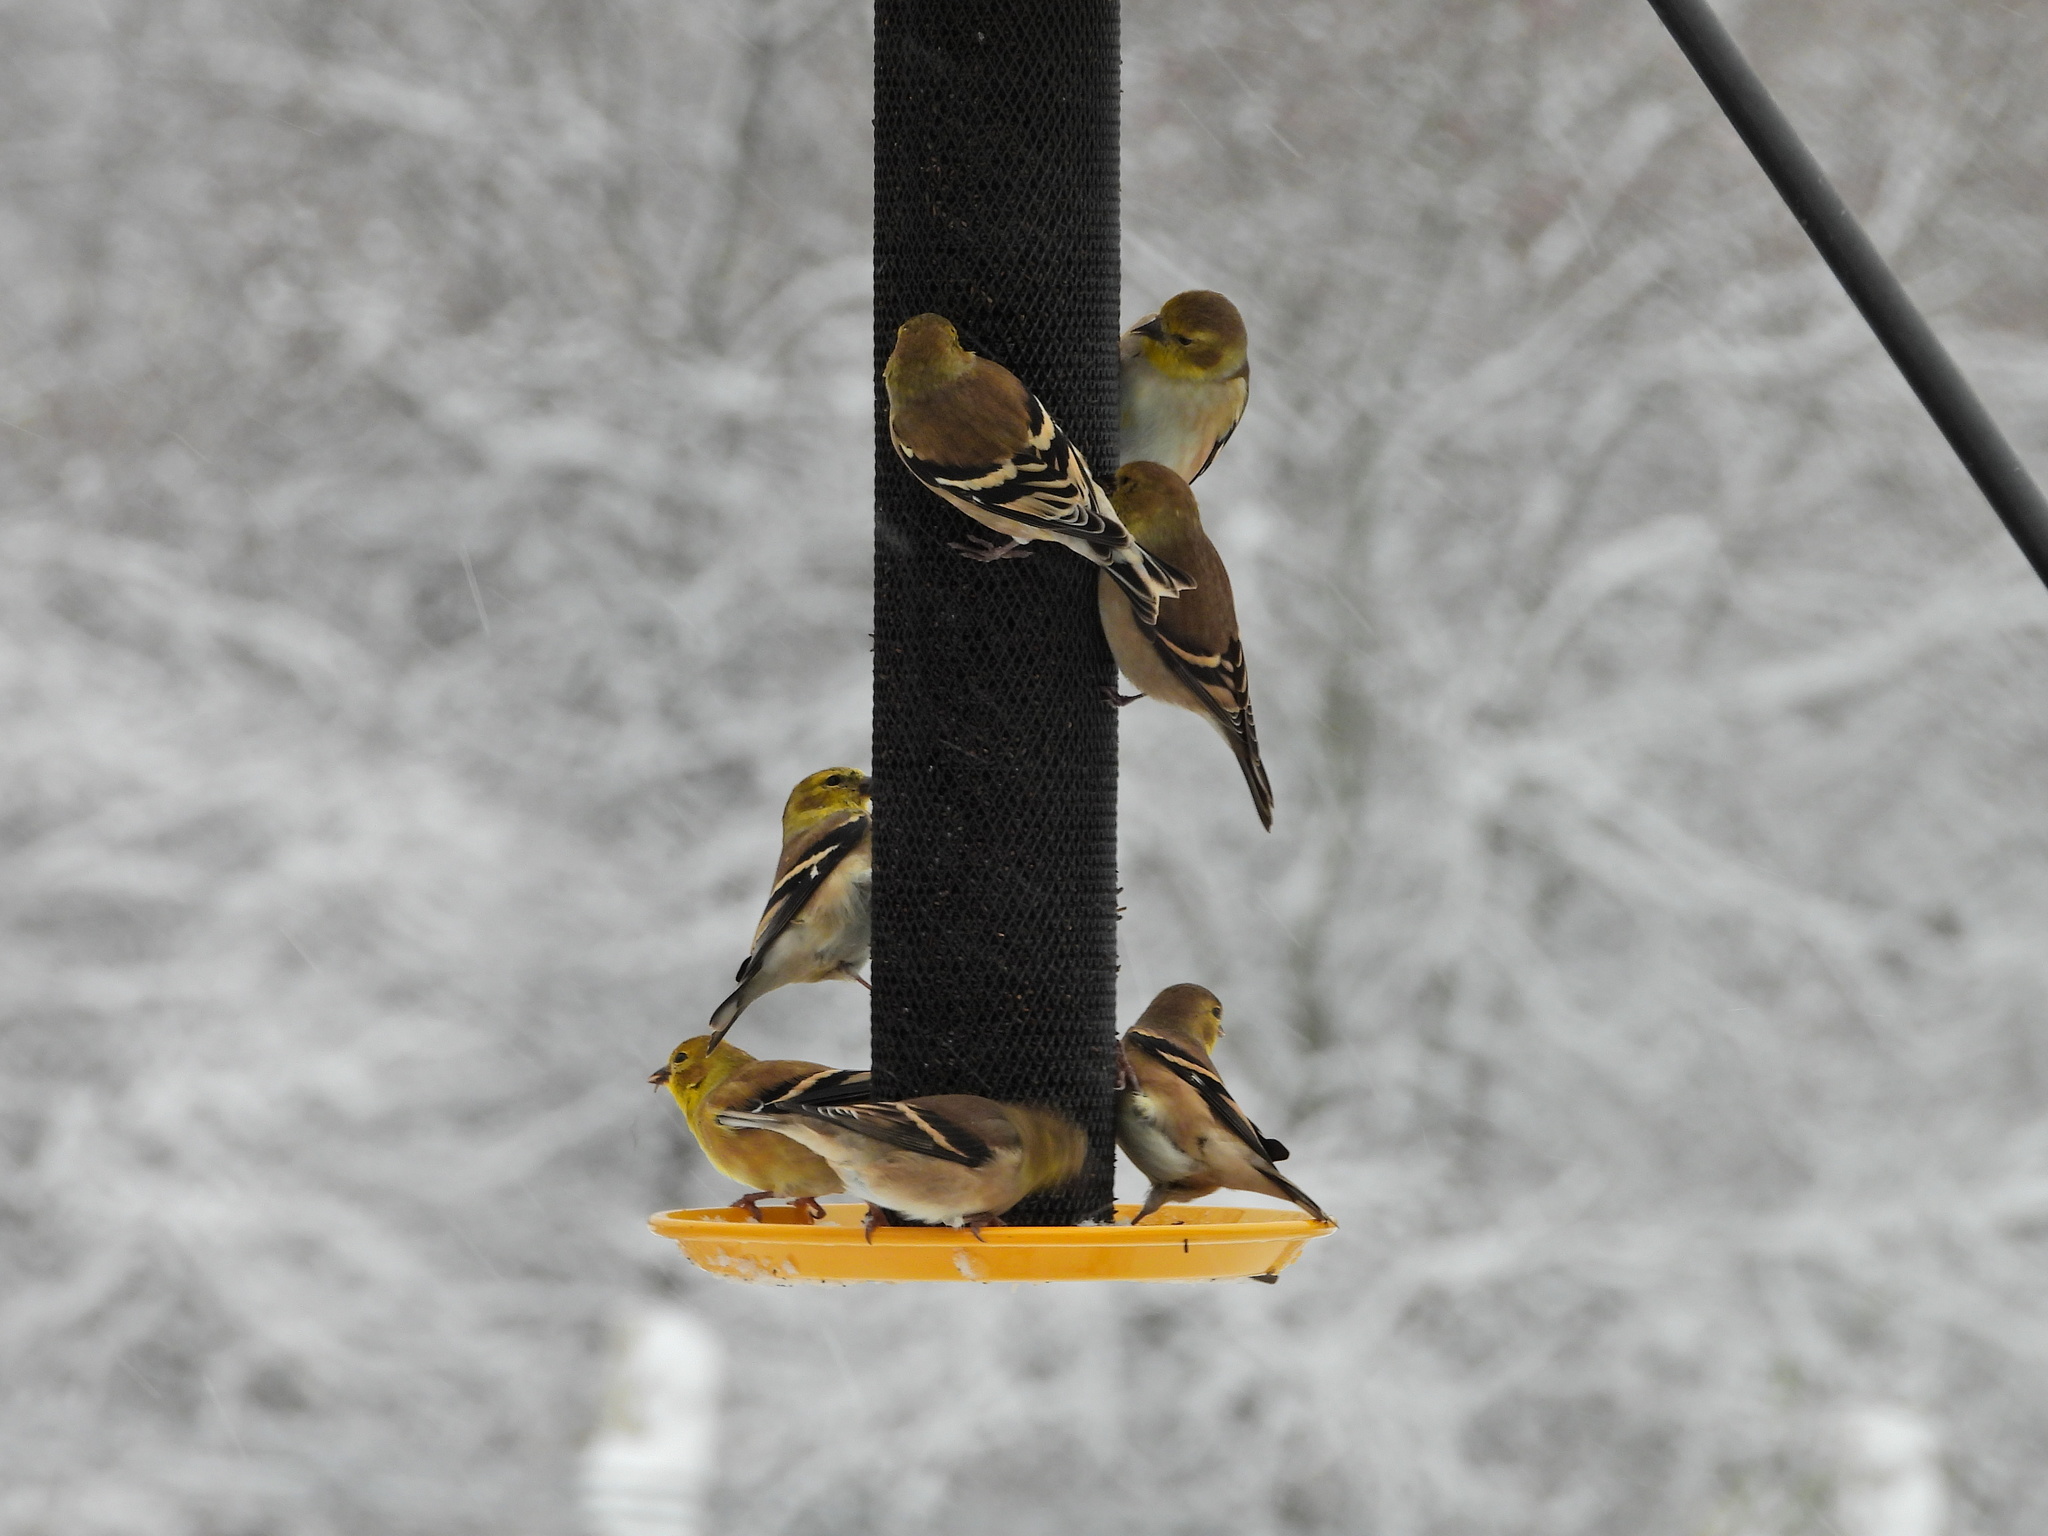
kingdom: Animalia
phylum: Chordata
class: Aves
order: Passeriformes
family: Fringillidae
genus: Spinus
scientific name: Spinus tristis
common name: American goldfinch
